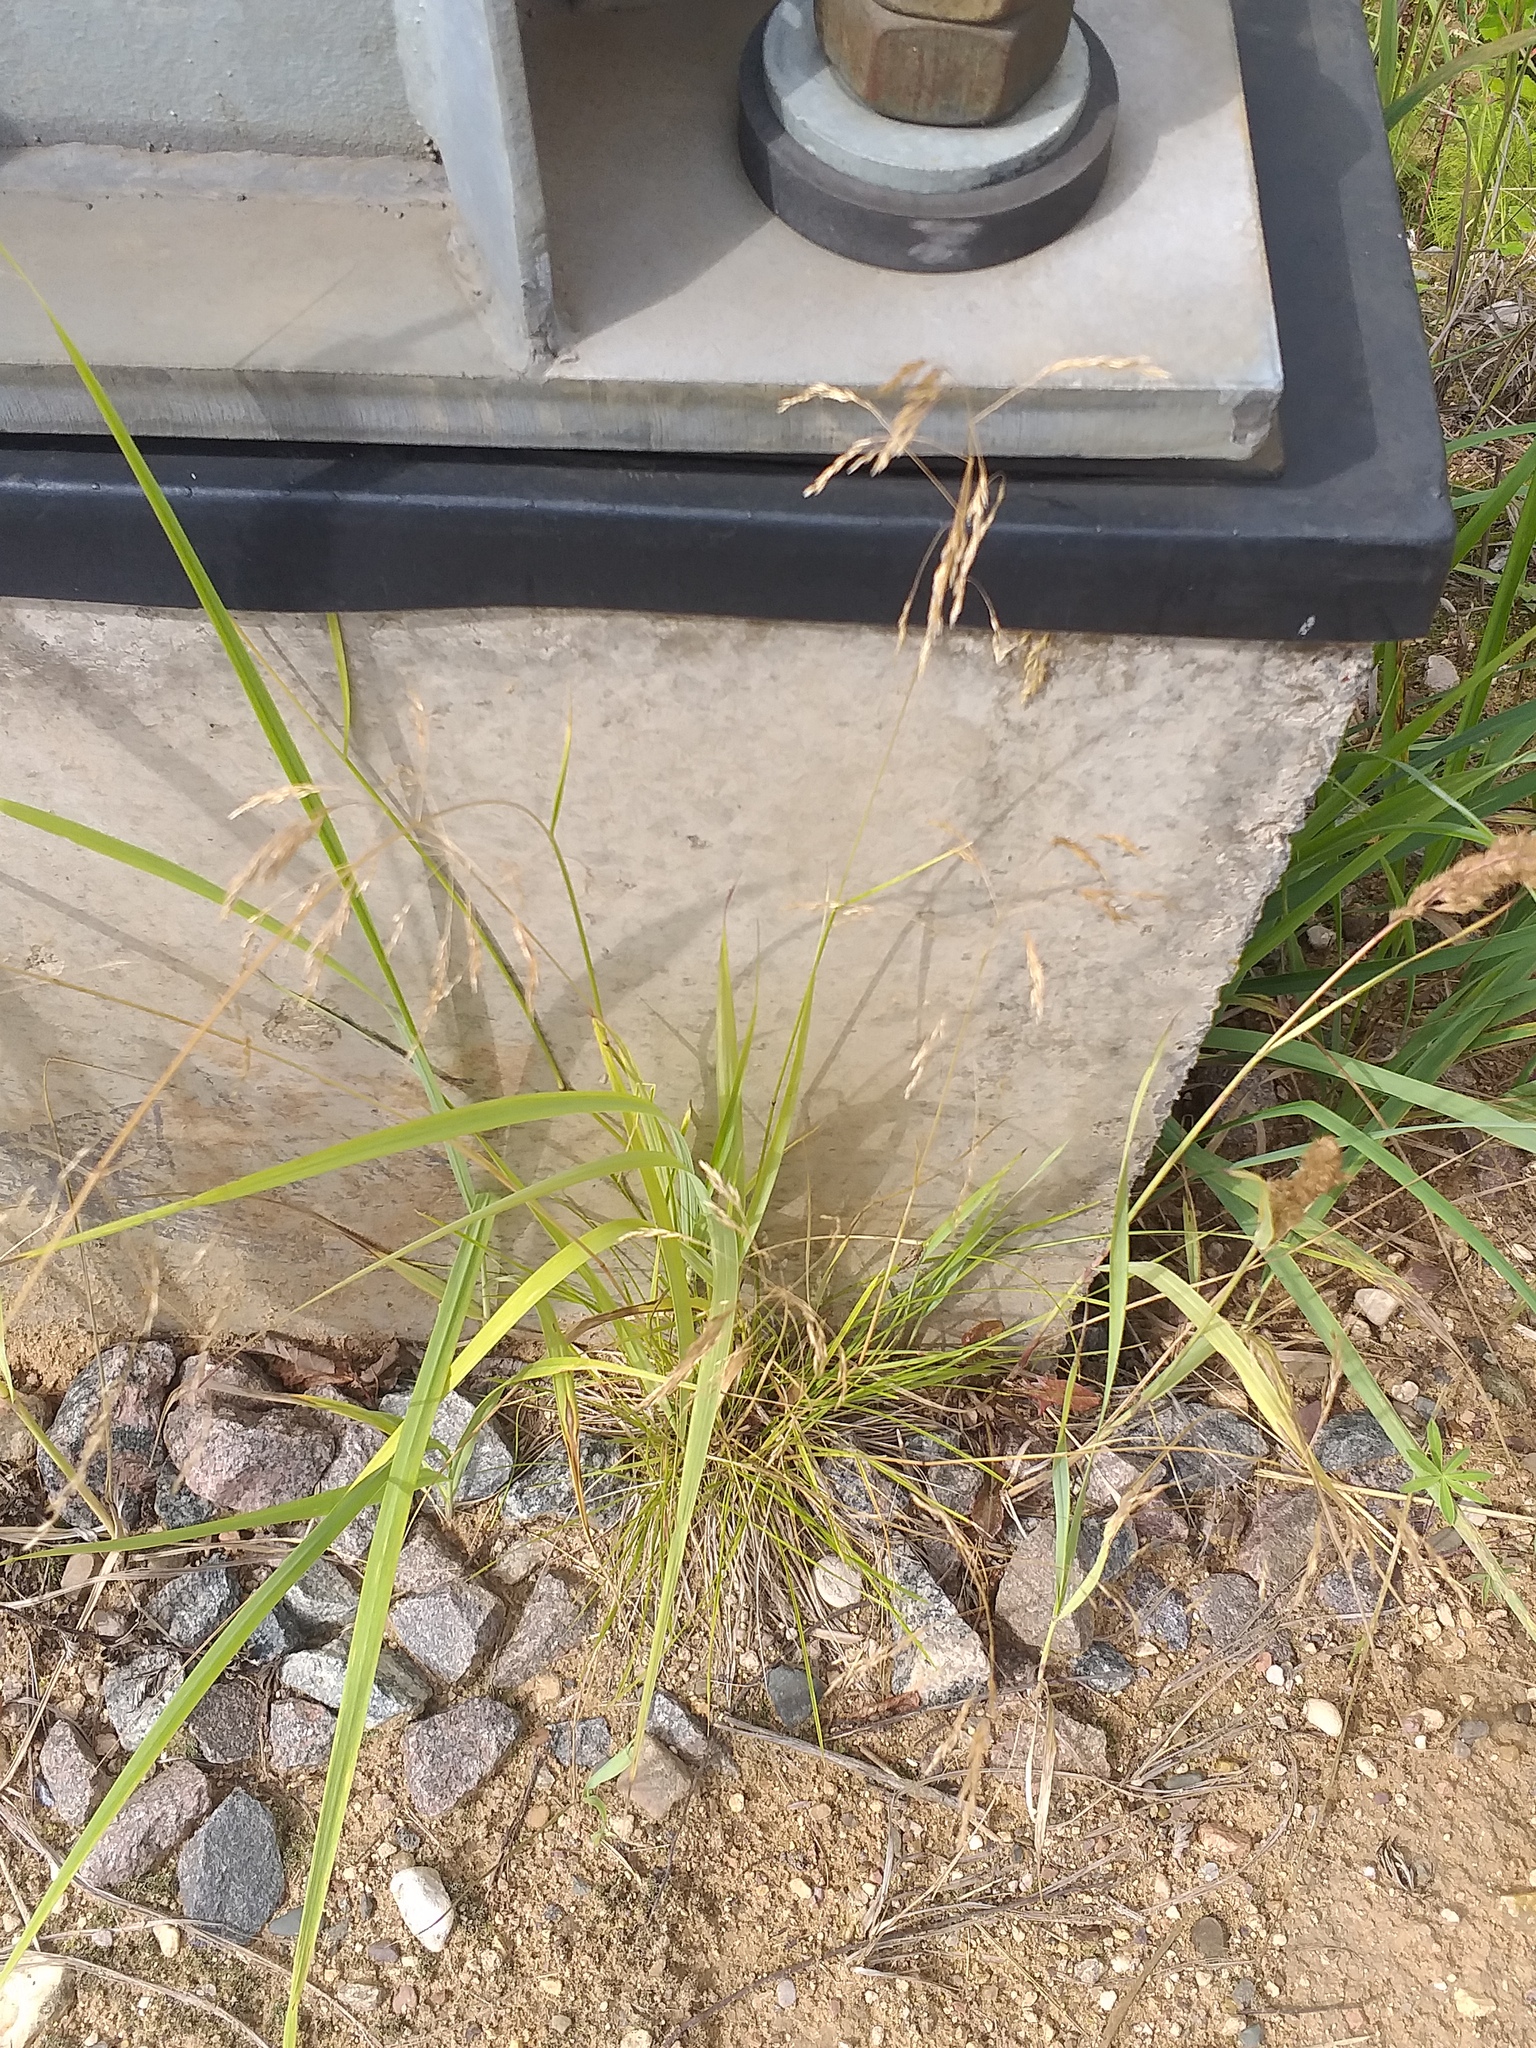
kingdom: Plantae
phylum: Tracheophyta
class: Liliopsida
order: Poales
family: Poaceae
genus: Deschampsia
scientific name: Deschampsia cespitosa
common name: Tufted hair-grass
